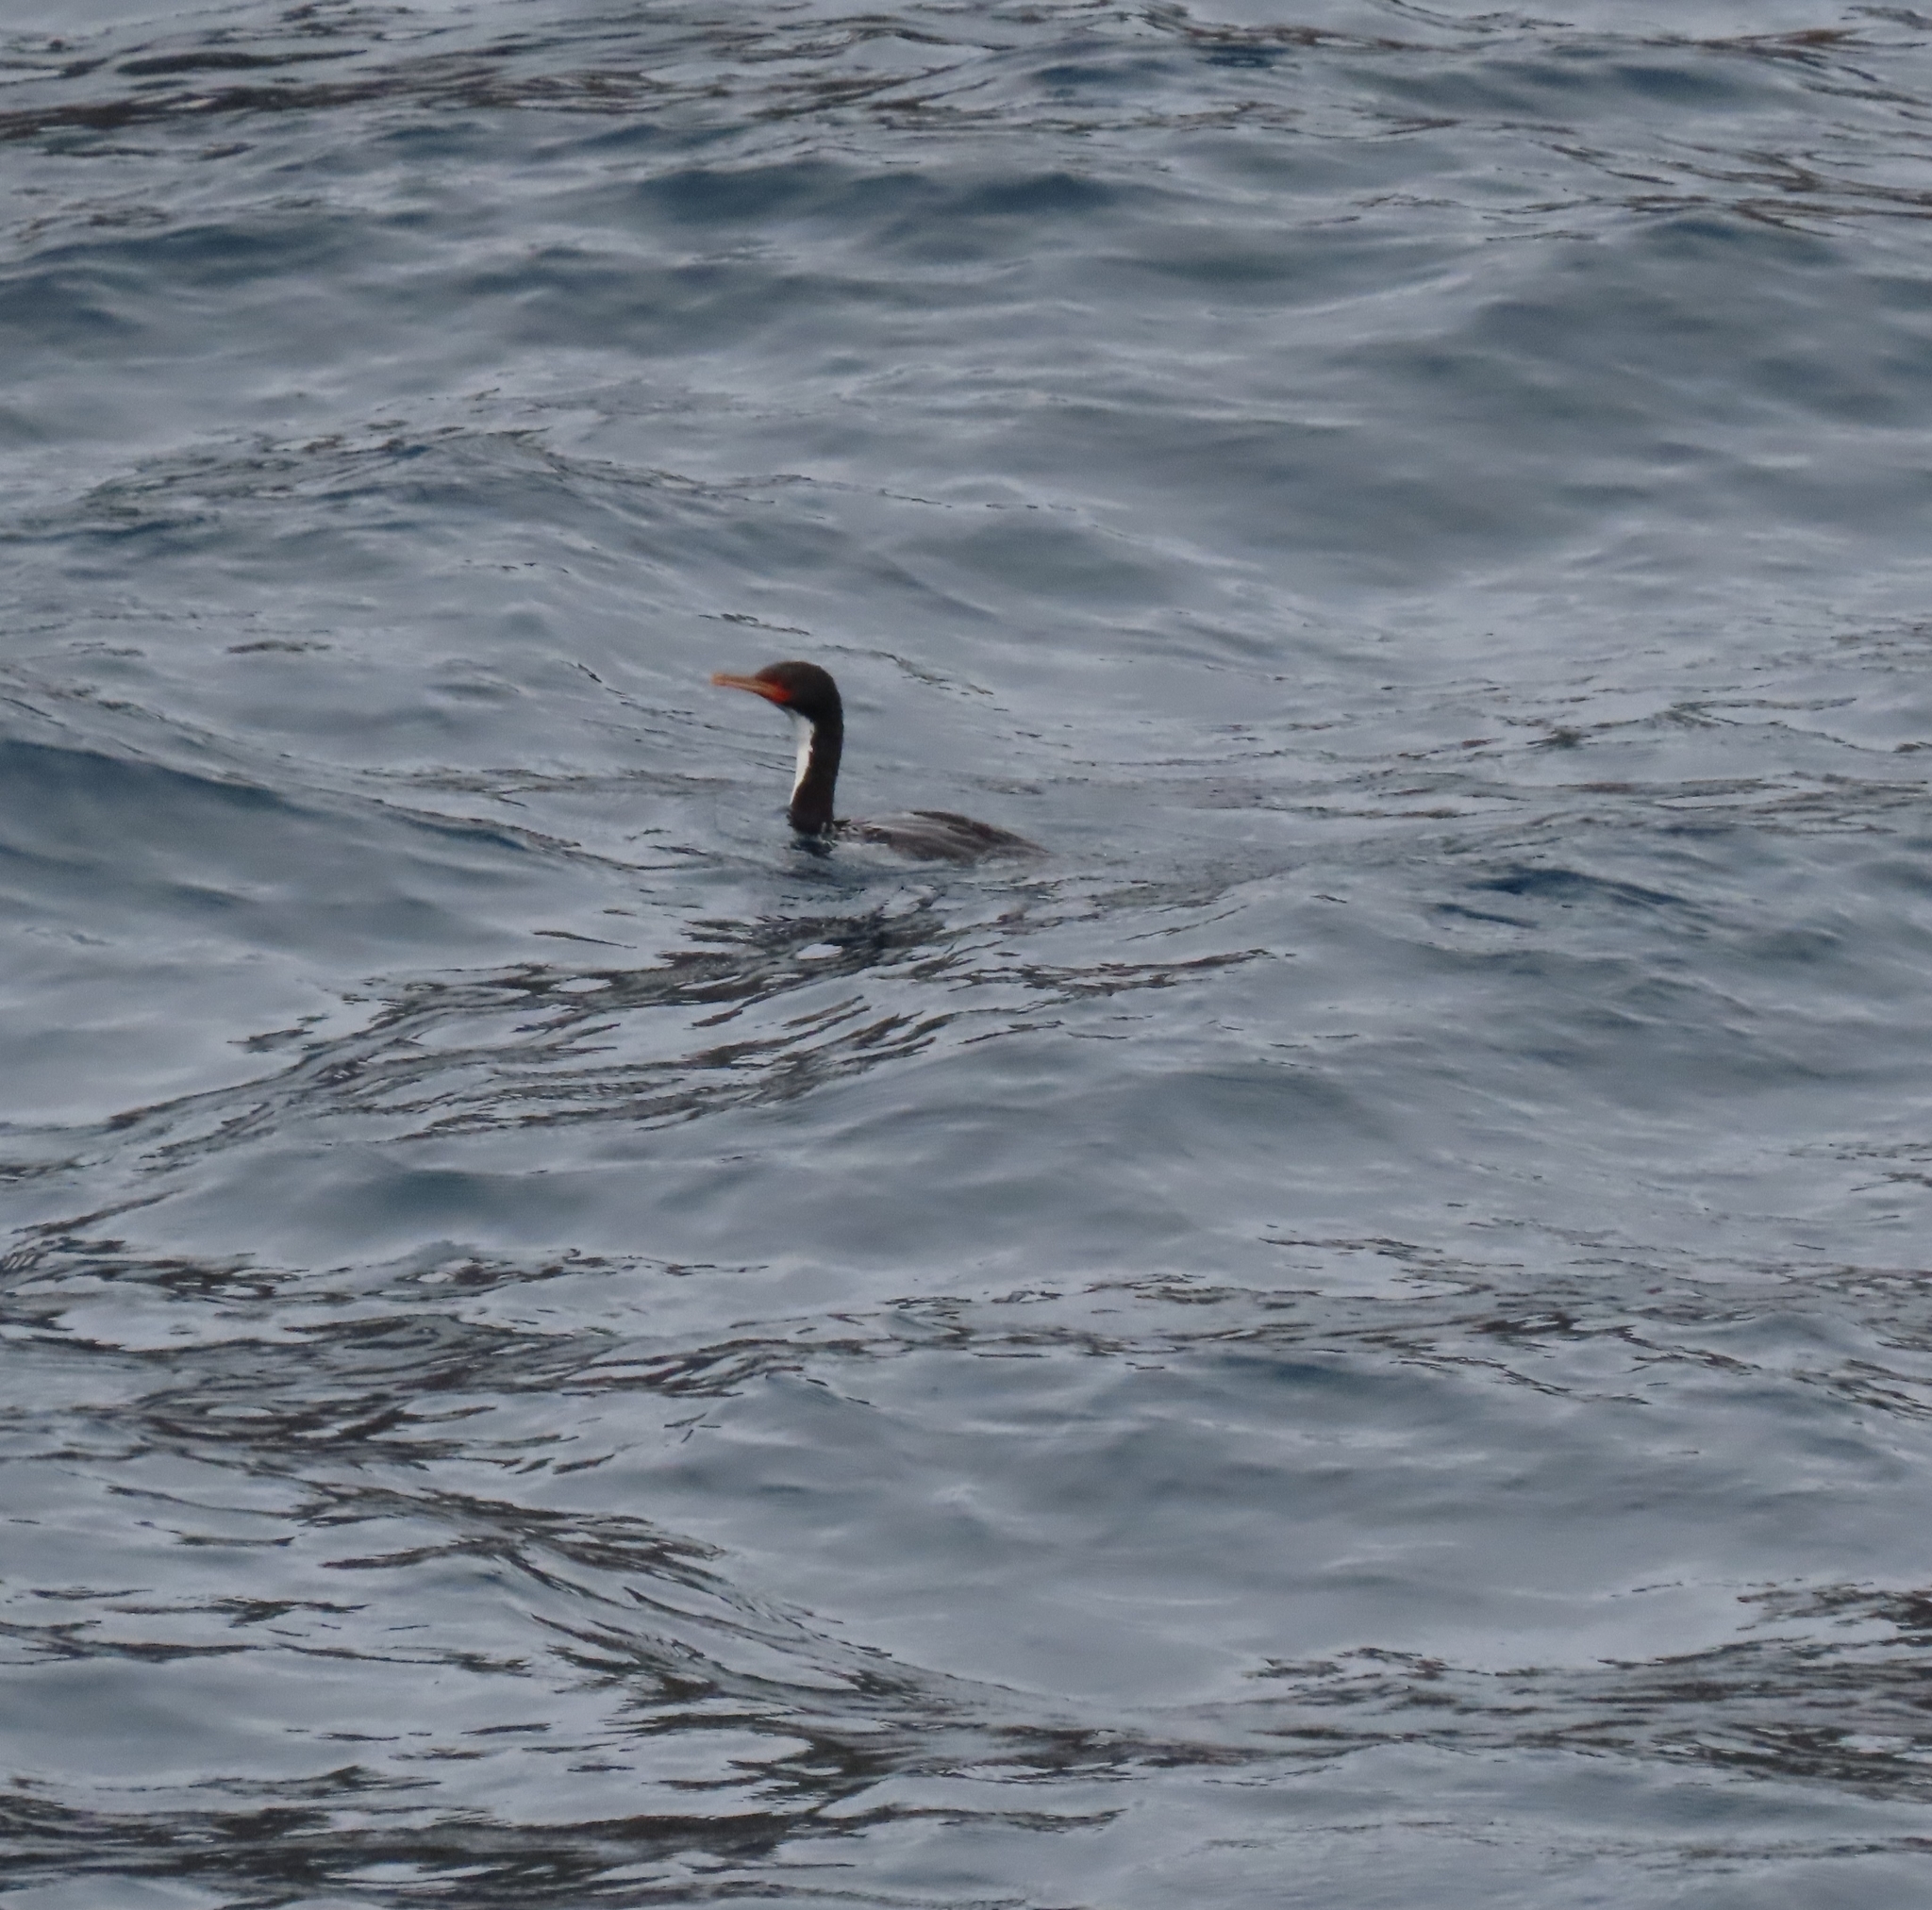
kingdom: Animalia
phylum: Chordata
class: Aves
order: Suliformes
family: Phalacrocoracidae
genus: Leucocarbo
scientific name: Leucocarbo ranfurlyi
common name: Bounty shag
